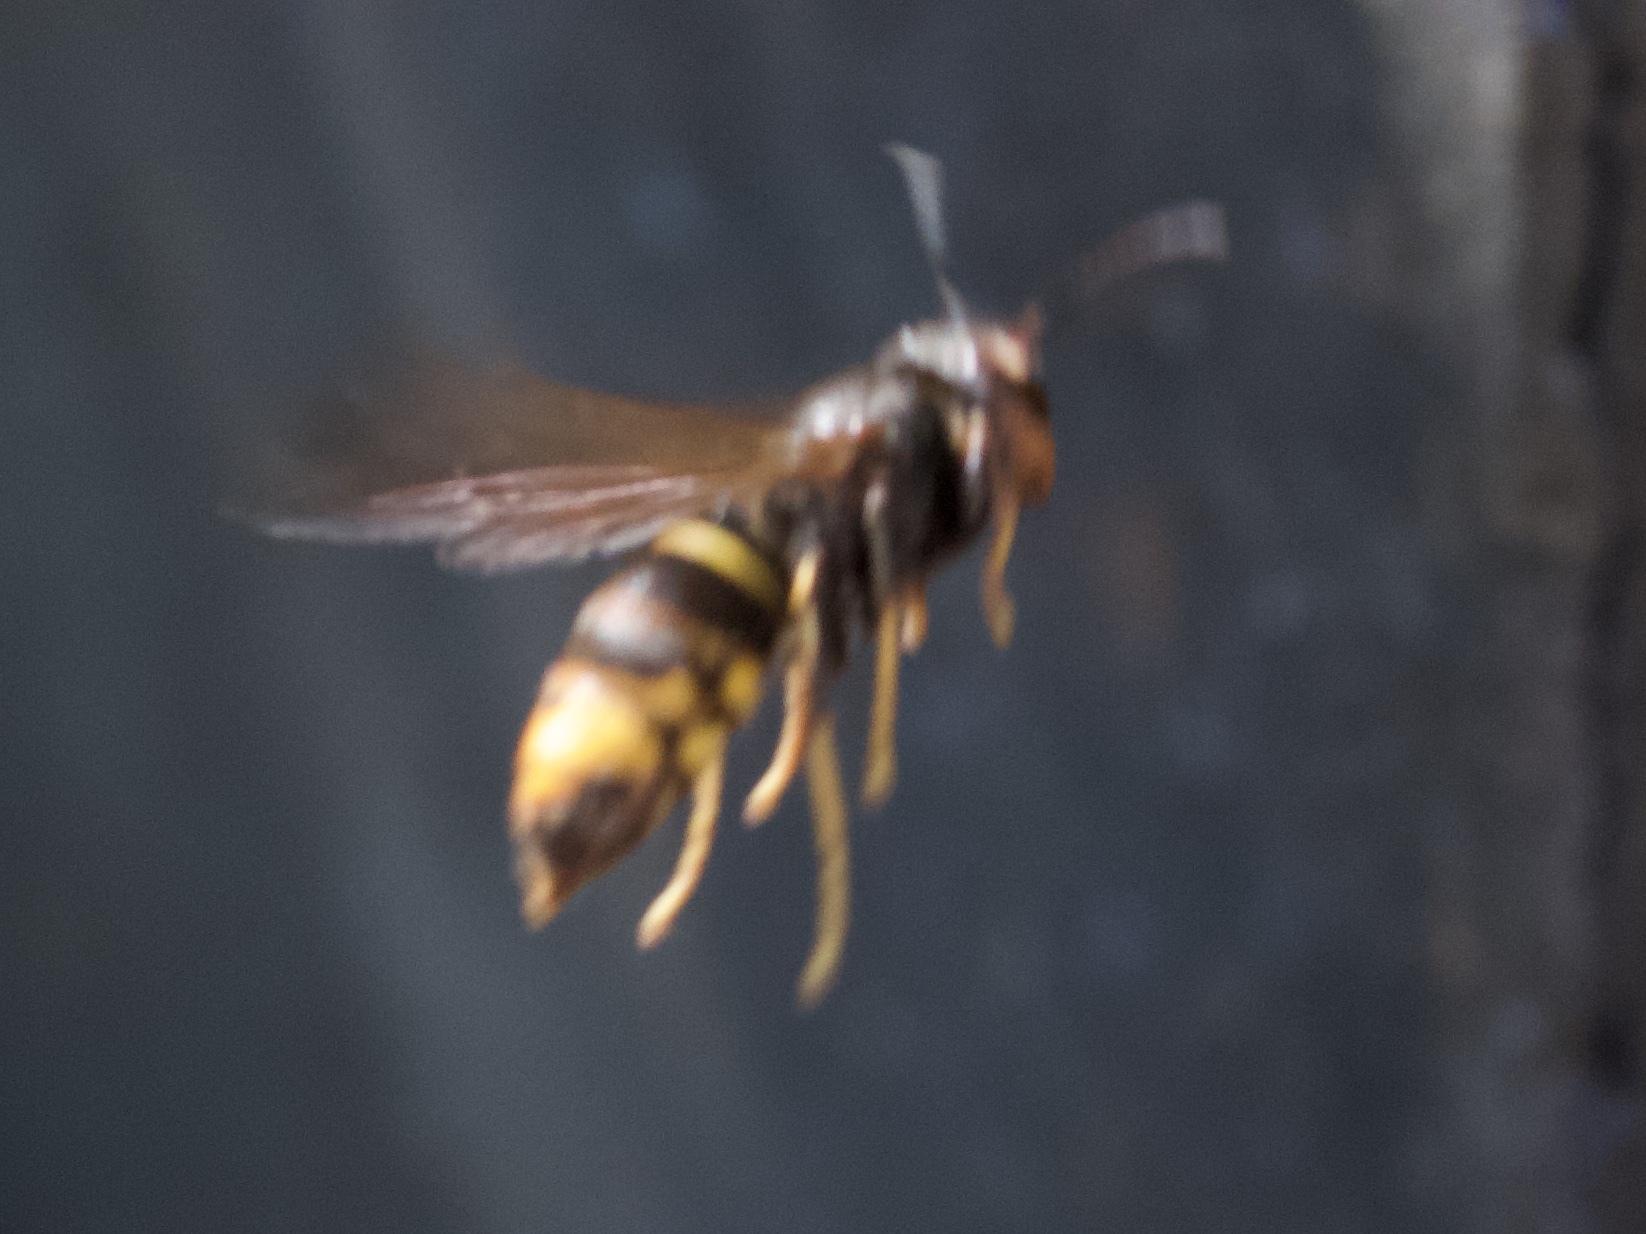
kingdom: Animalia
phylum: Arthropoda
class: Insecta
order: Hymenoptera
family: Vespidae
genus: Vespa
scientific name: Vespa velutina
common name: Asian hornet
